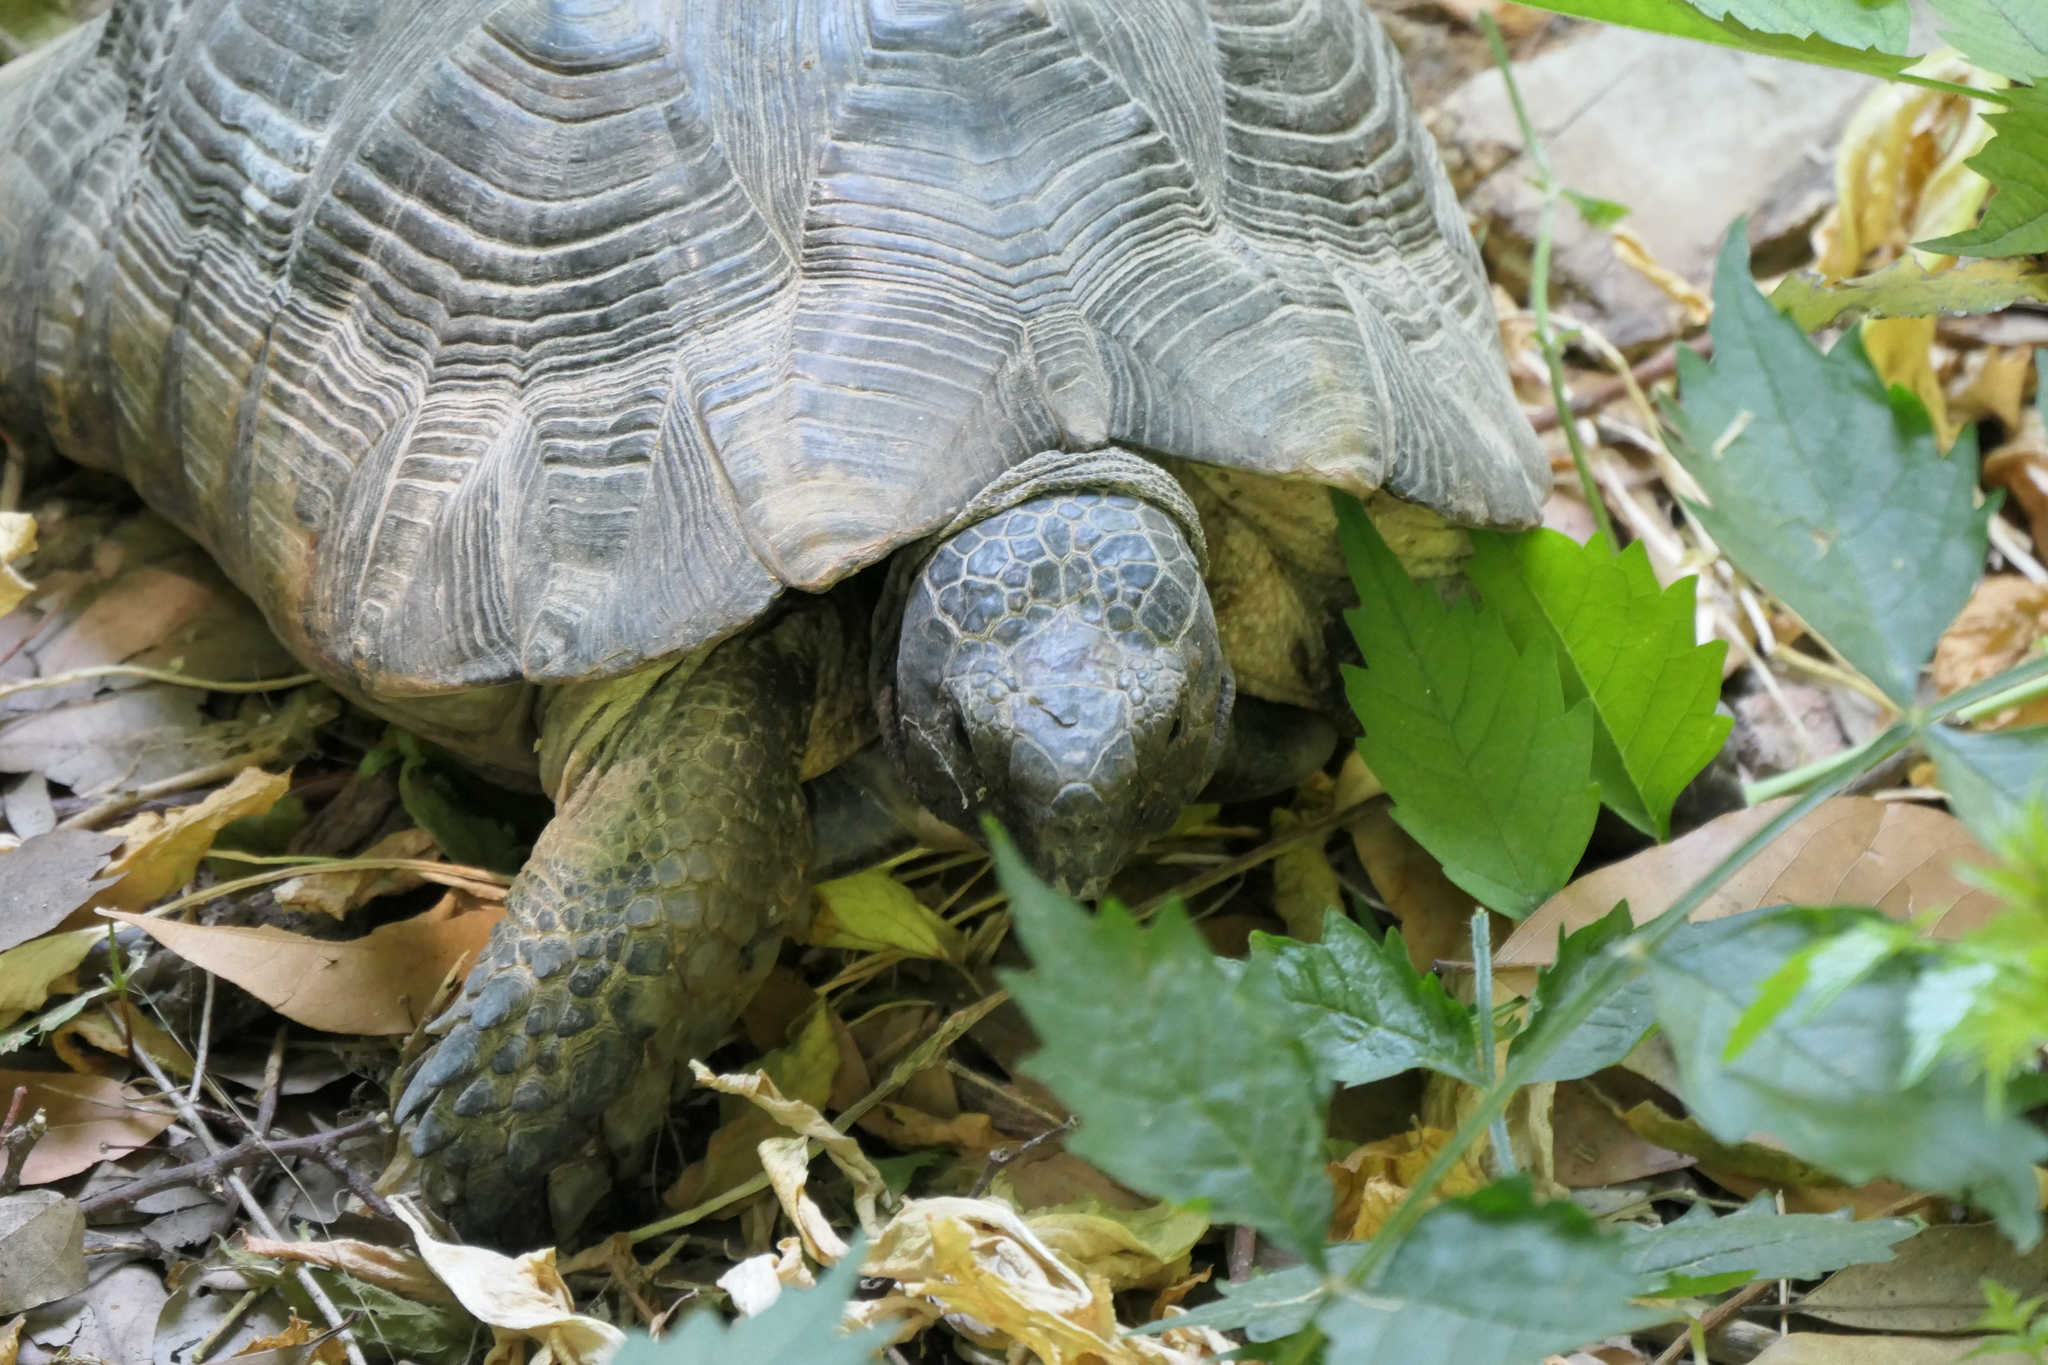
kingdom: Animalia
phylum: Chordata
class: Testudines
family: Testudinidae
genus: Testudo
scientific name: Testudo marginata
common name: Marginated tortoise
